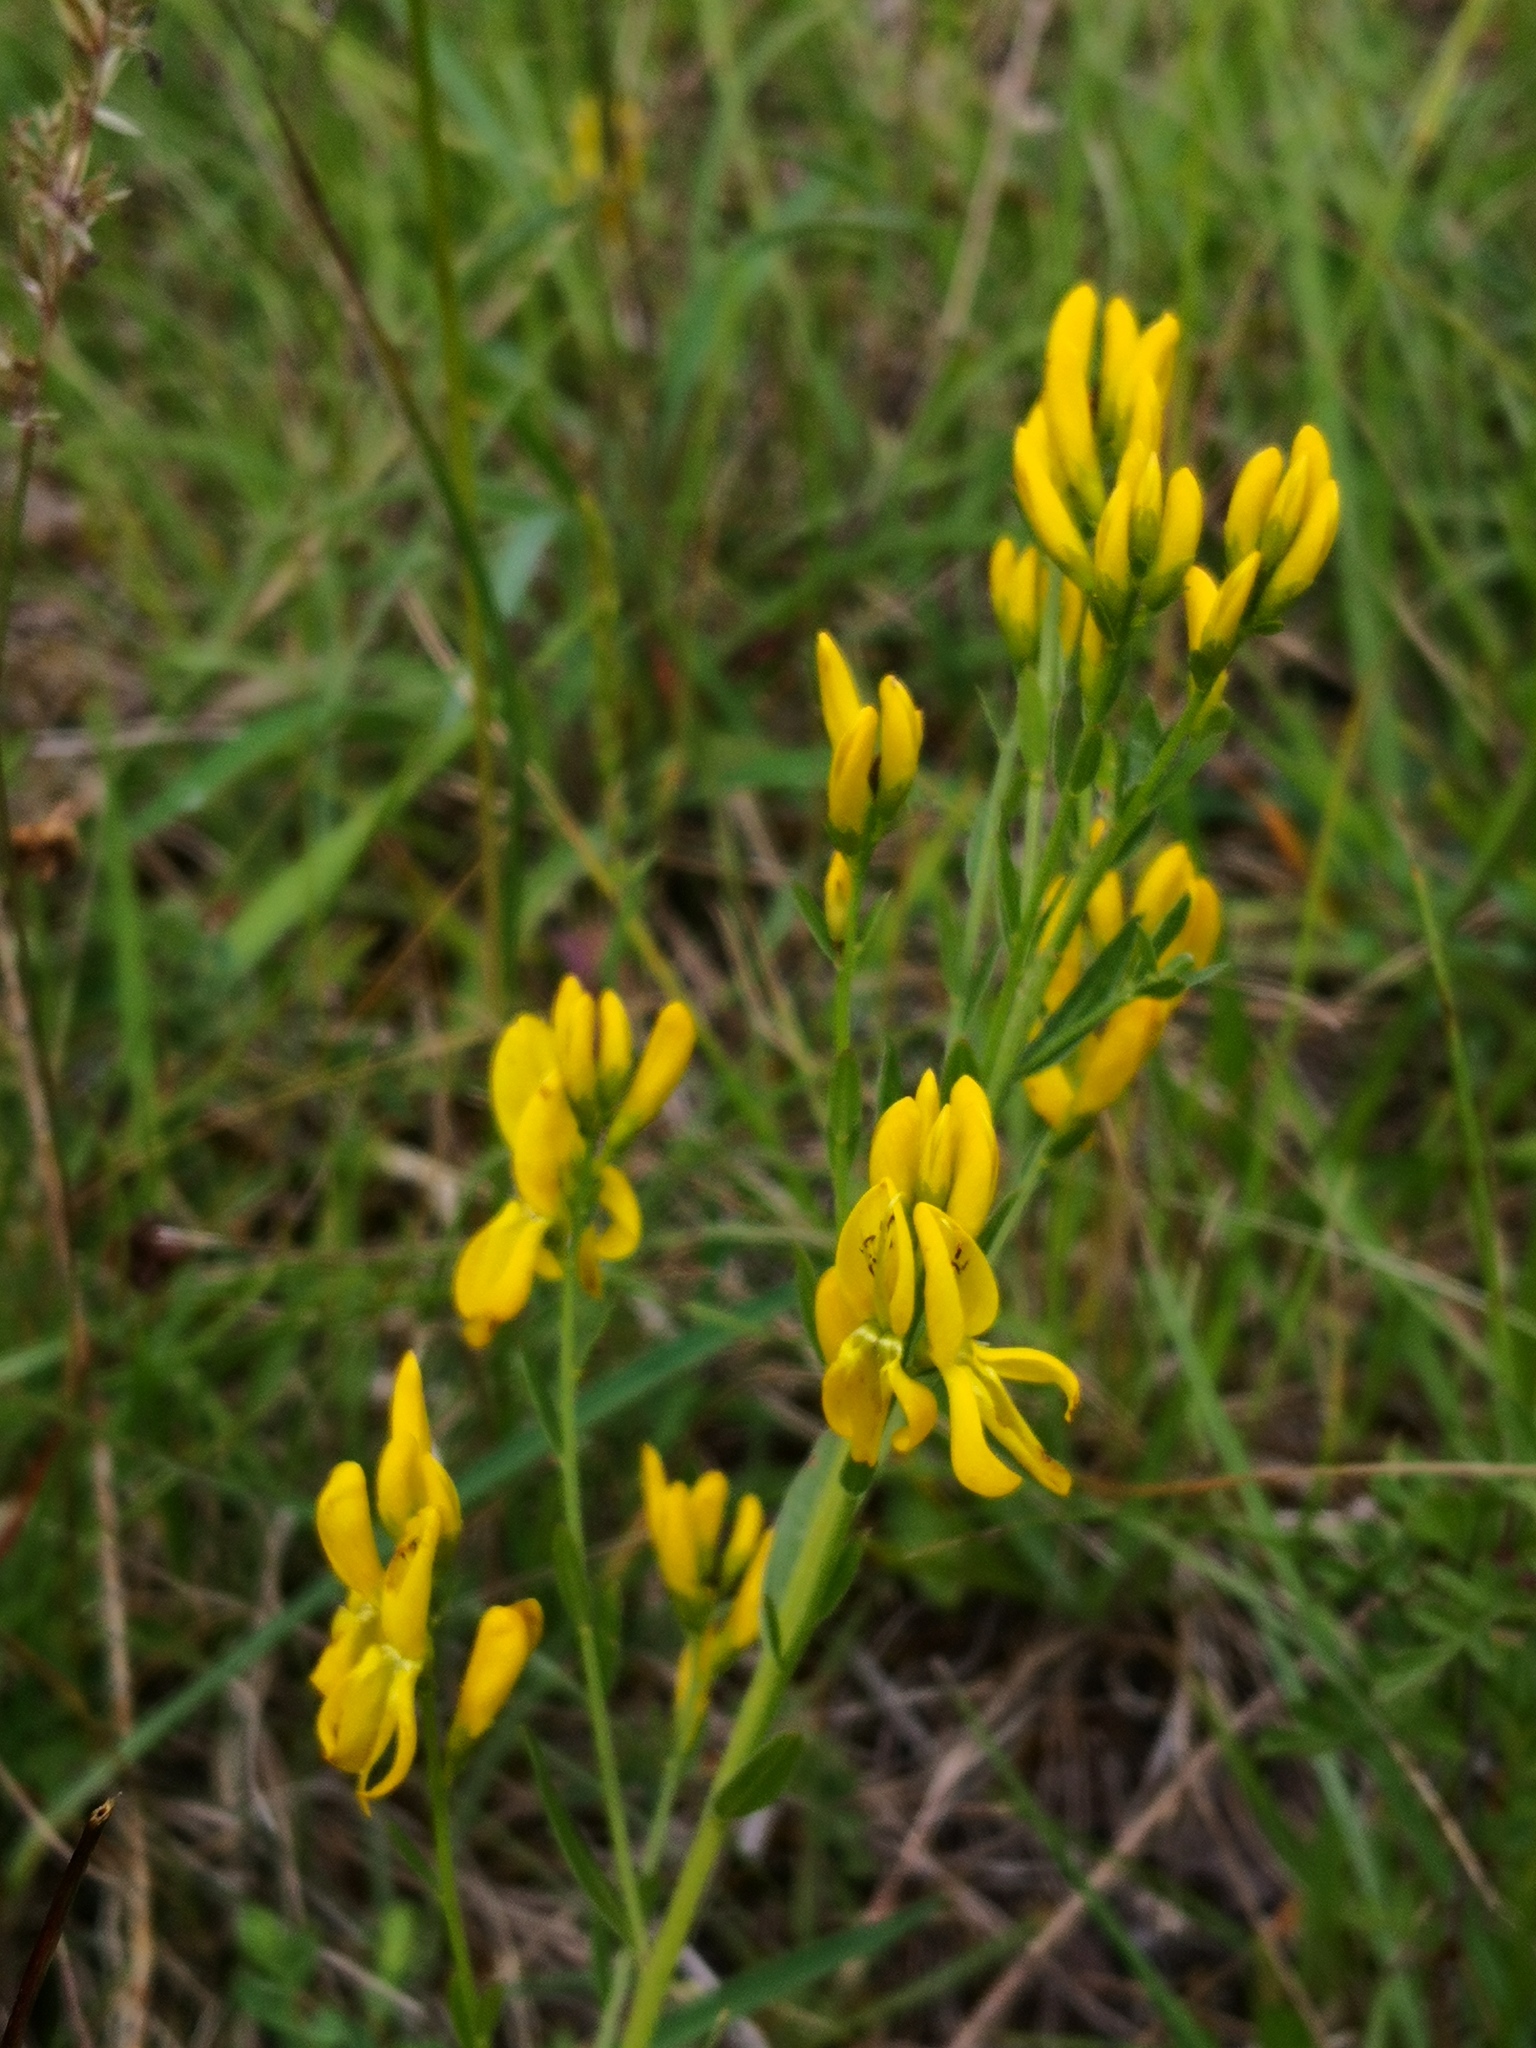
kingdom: Plantae
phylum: Tracheophyta
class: Magnoliopsida
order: Fabales
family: Fabaceae
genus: Genista
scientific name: Genista tinctoria
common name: Dyer's greenweed
